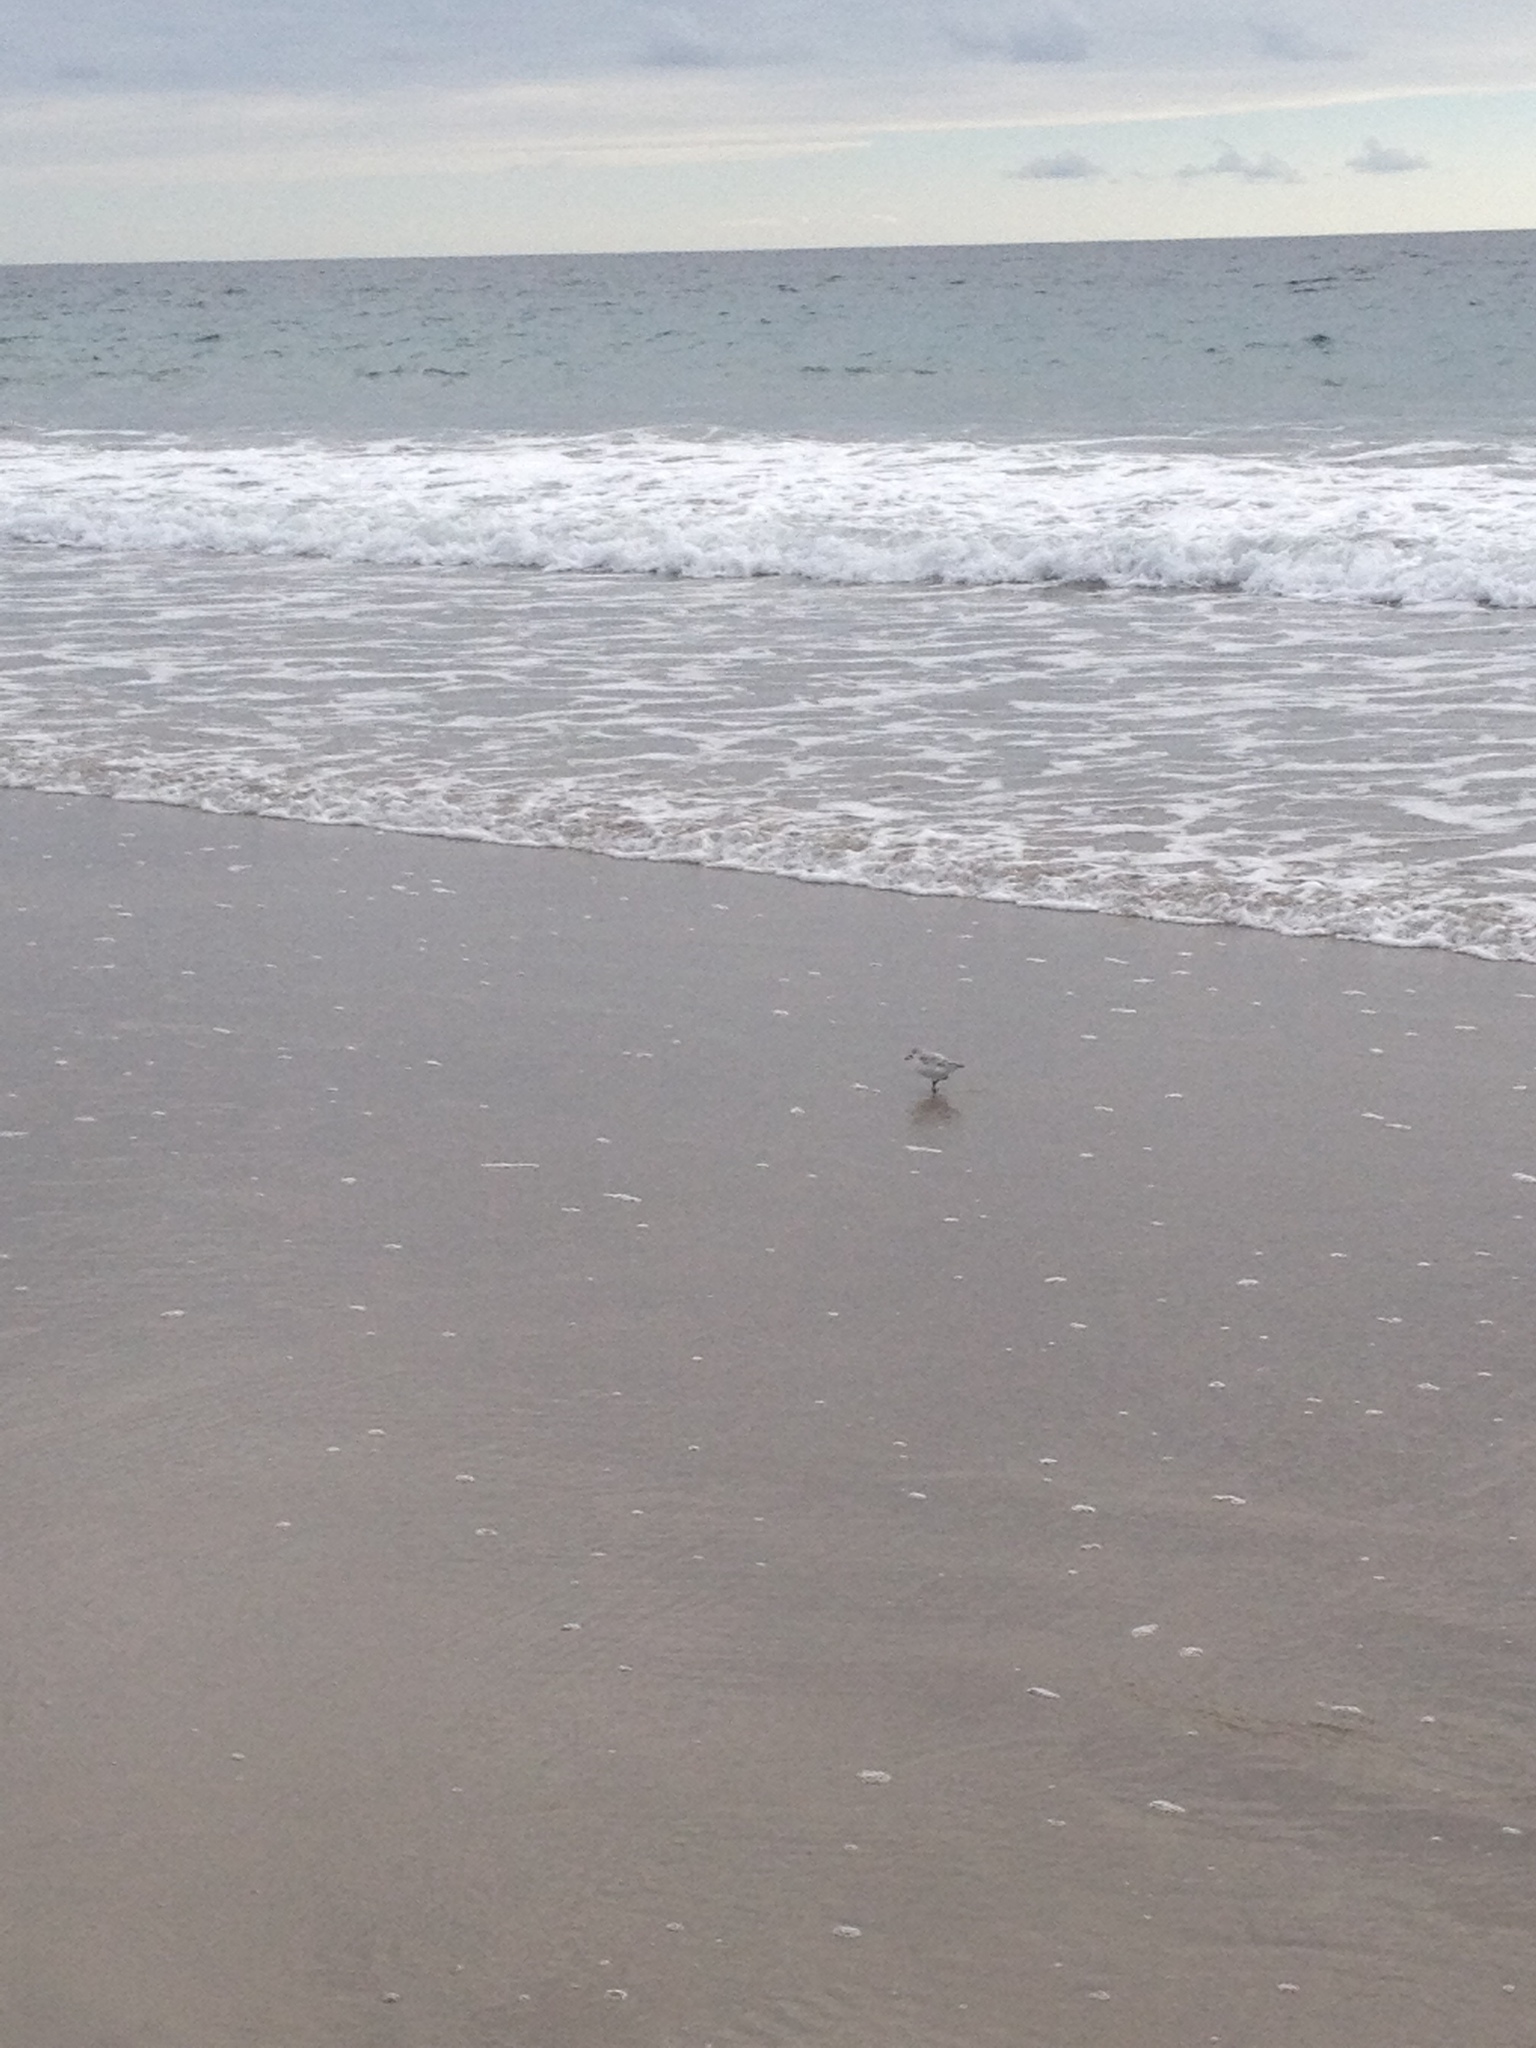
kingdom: Animalia
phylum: Chordata
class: Aves
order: Charadriiformes
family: Scolopacidae
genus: Calidris
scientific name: Calidris alba
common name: Sanderling
